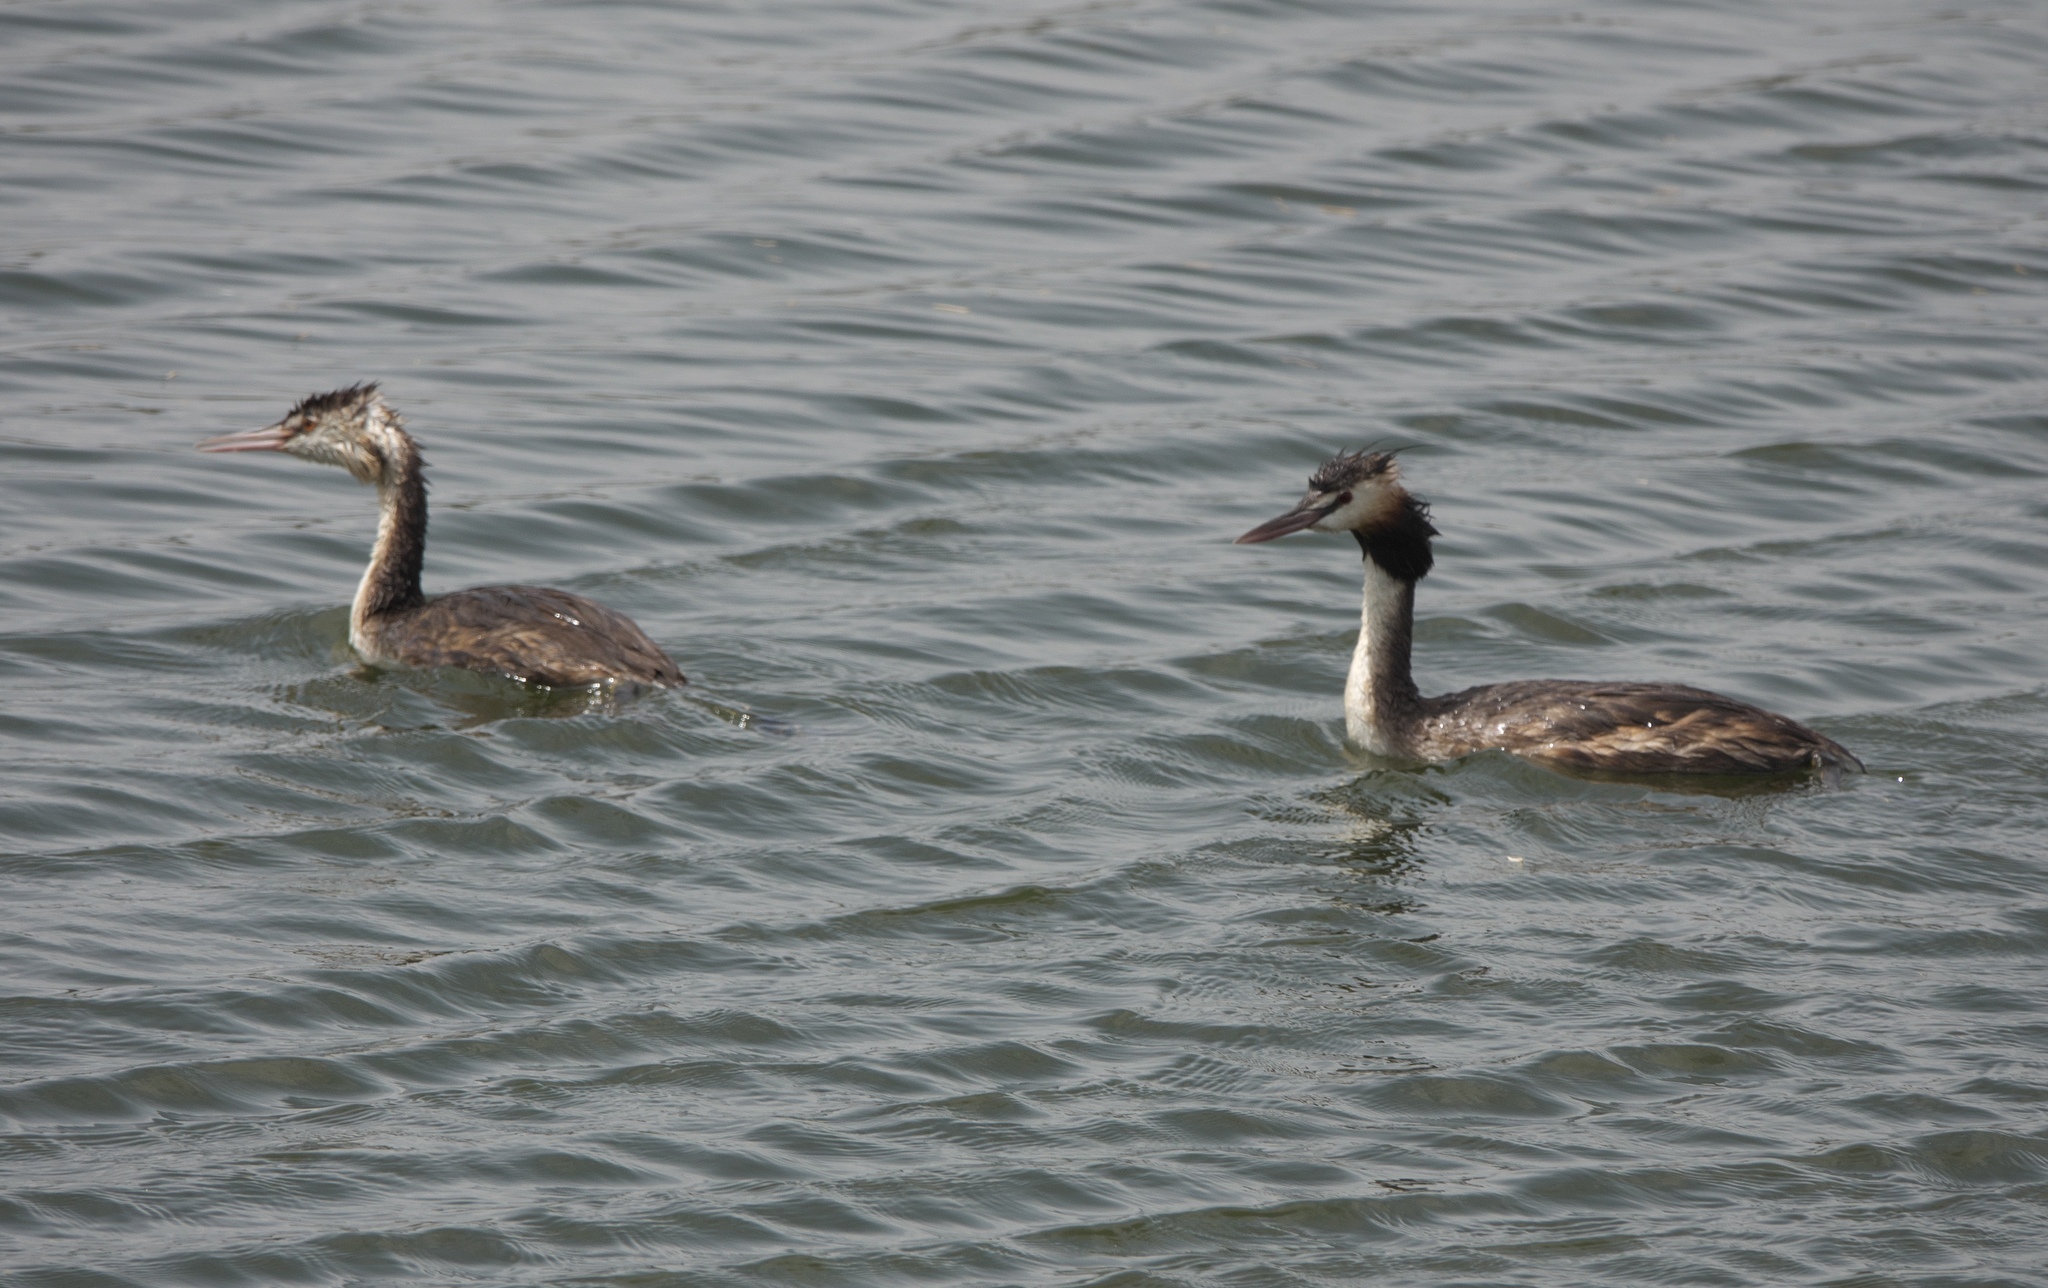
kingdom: Animalia
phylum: Chordata
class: Aves
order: Podicipediformes
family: Podicipedidae
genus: Podiceps
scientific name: Podiceps cristatus
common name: Great crested grebe
